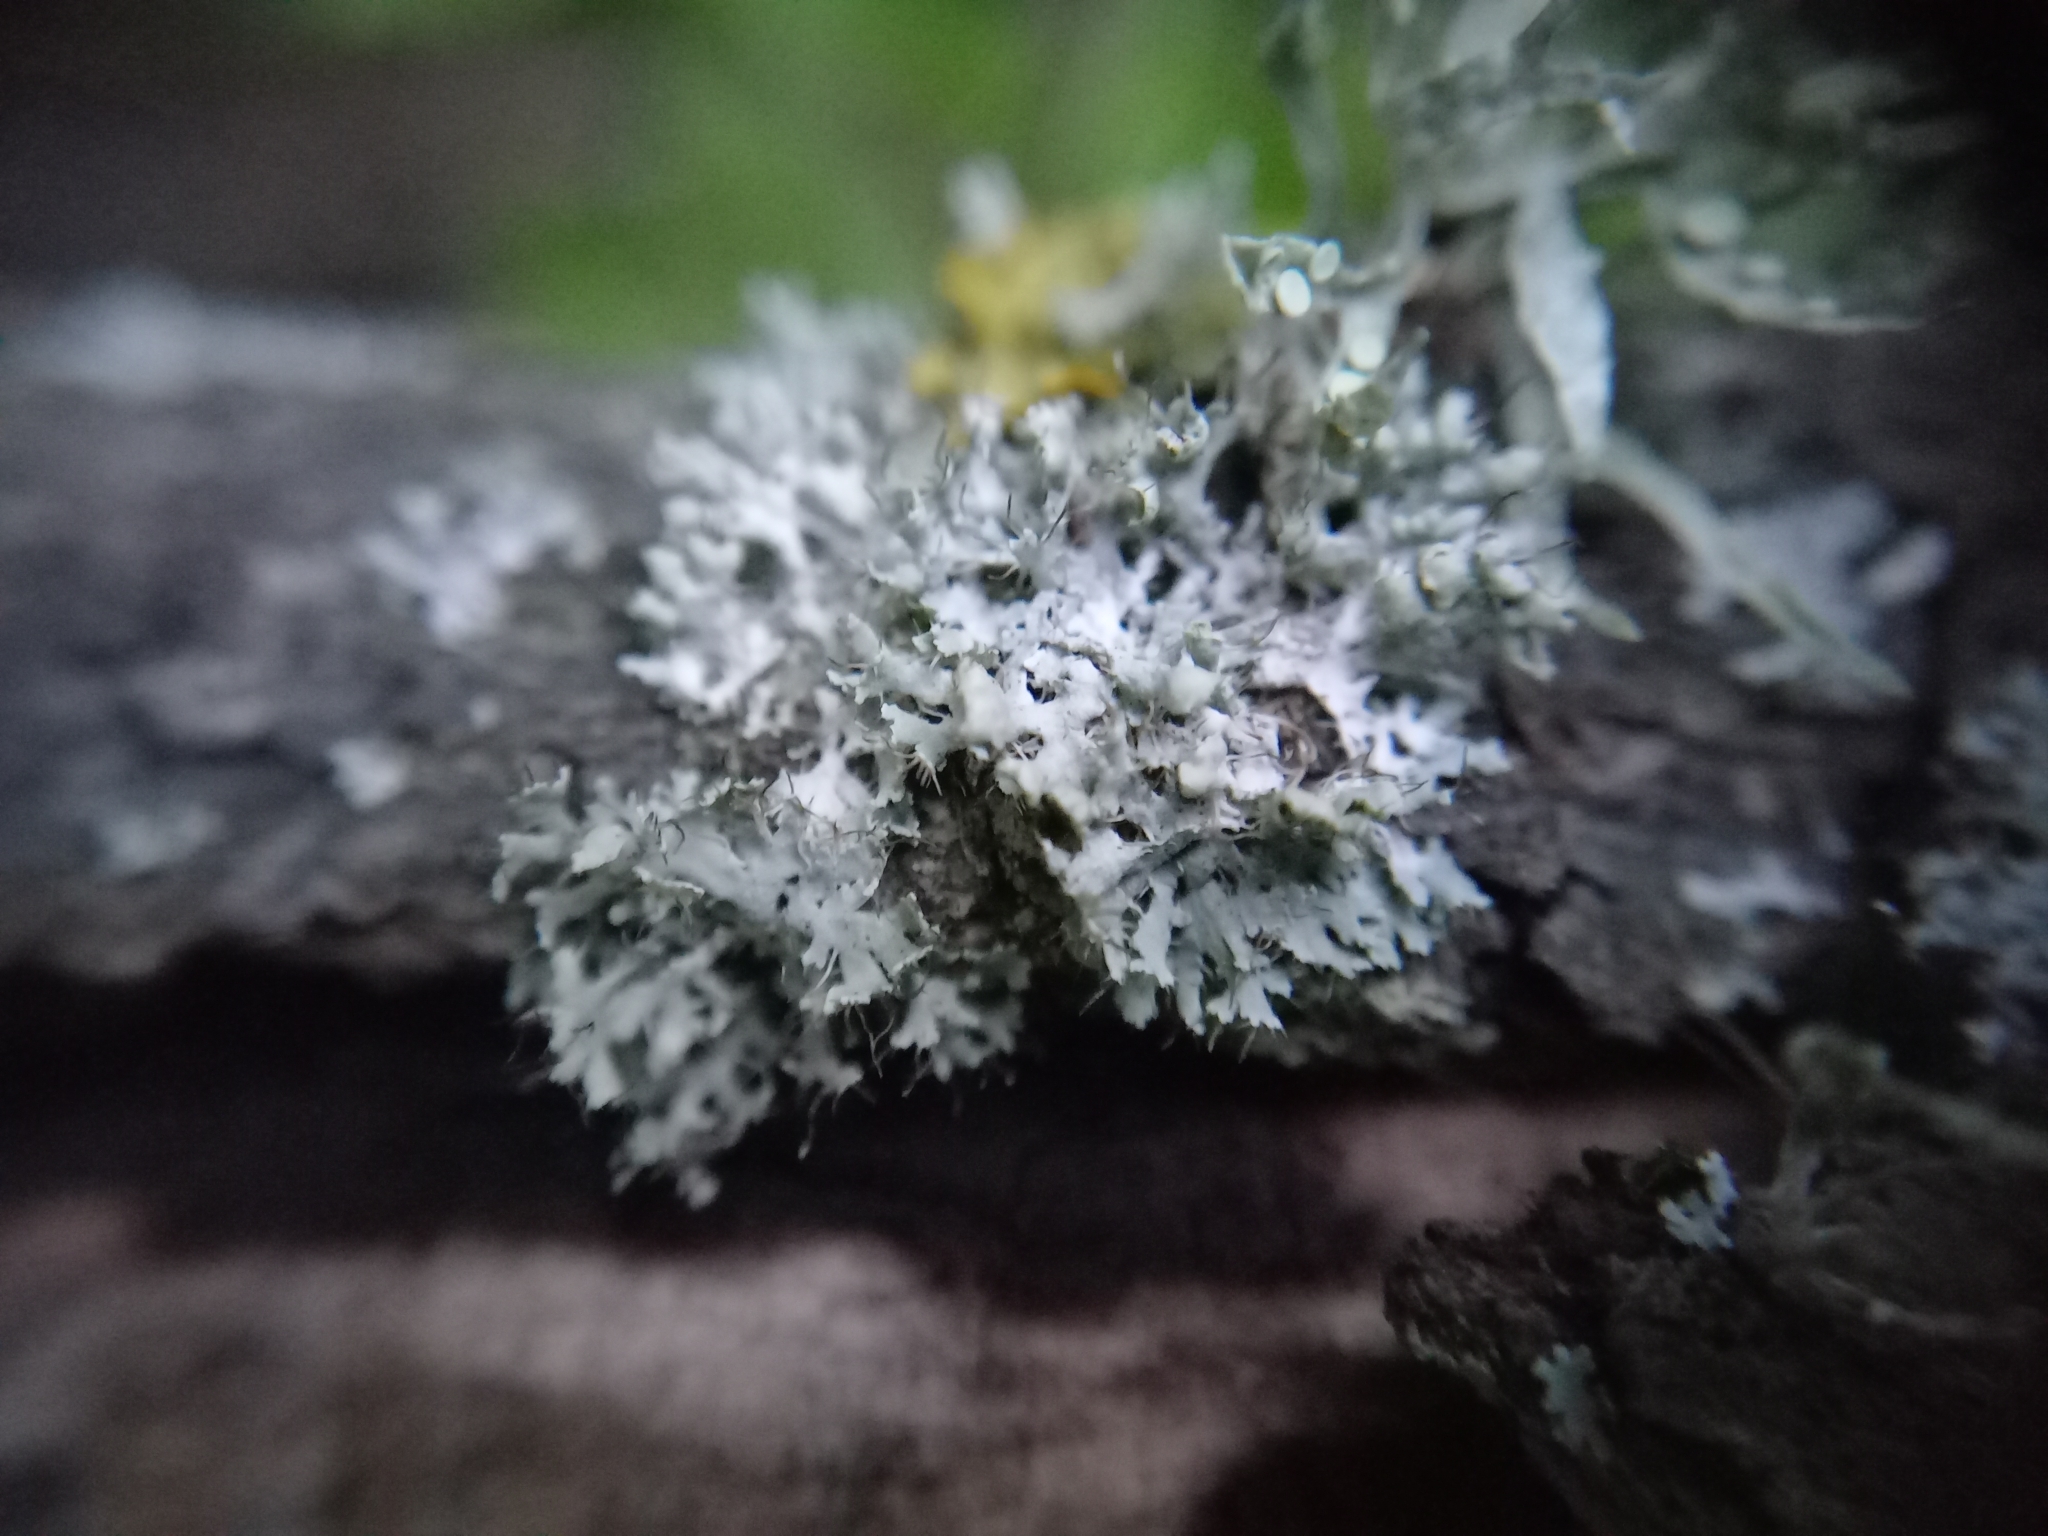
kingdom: Fungi
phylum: Ascomycota
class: Lecanoromycetes
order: Caliciales
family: Physciaceae
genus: Physcia
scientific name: Physcia adscendens
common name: Hooded rosette lichen
